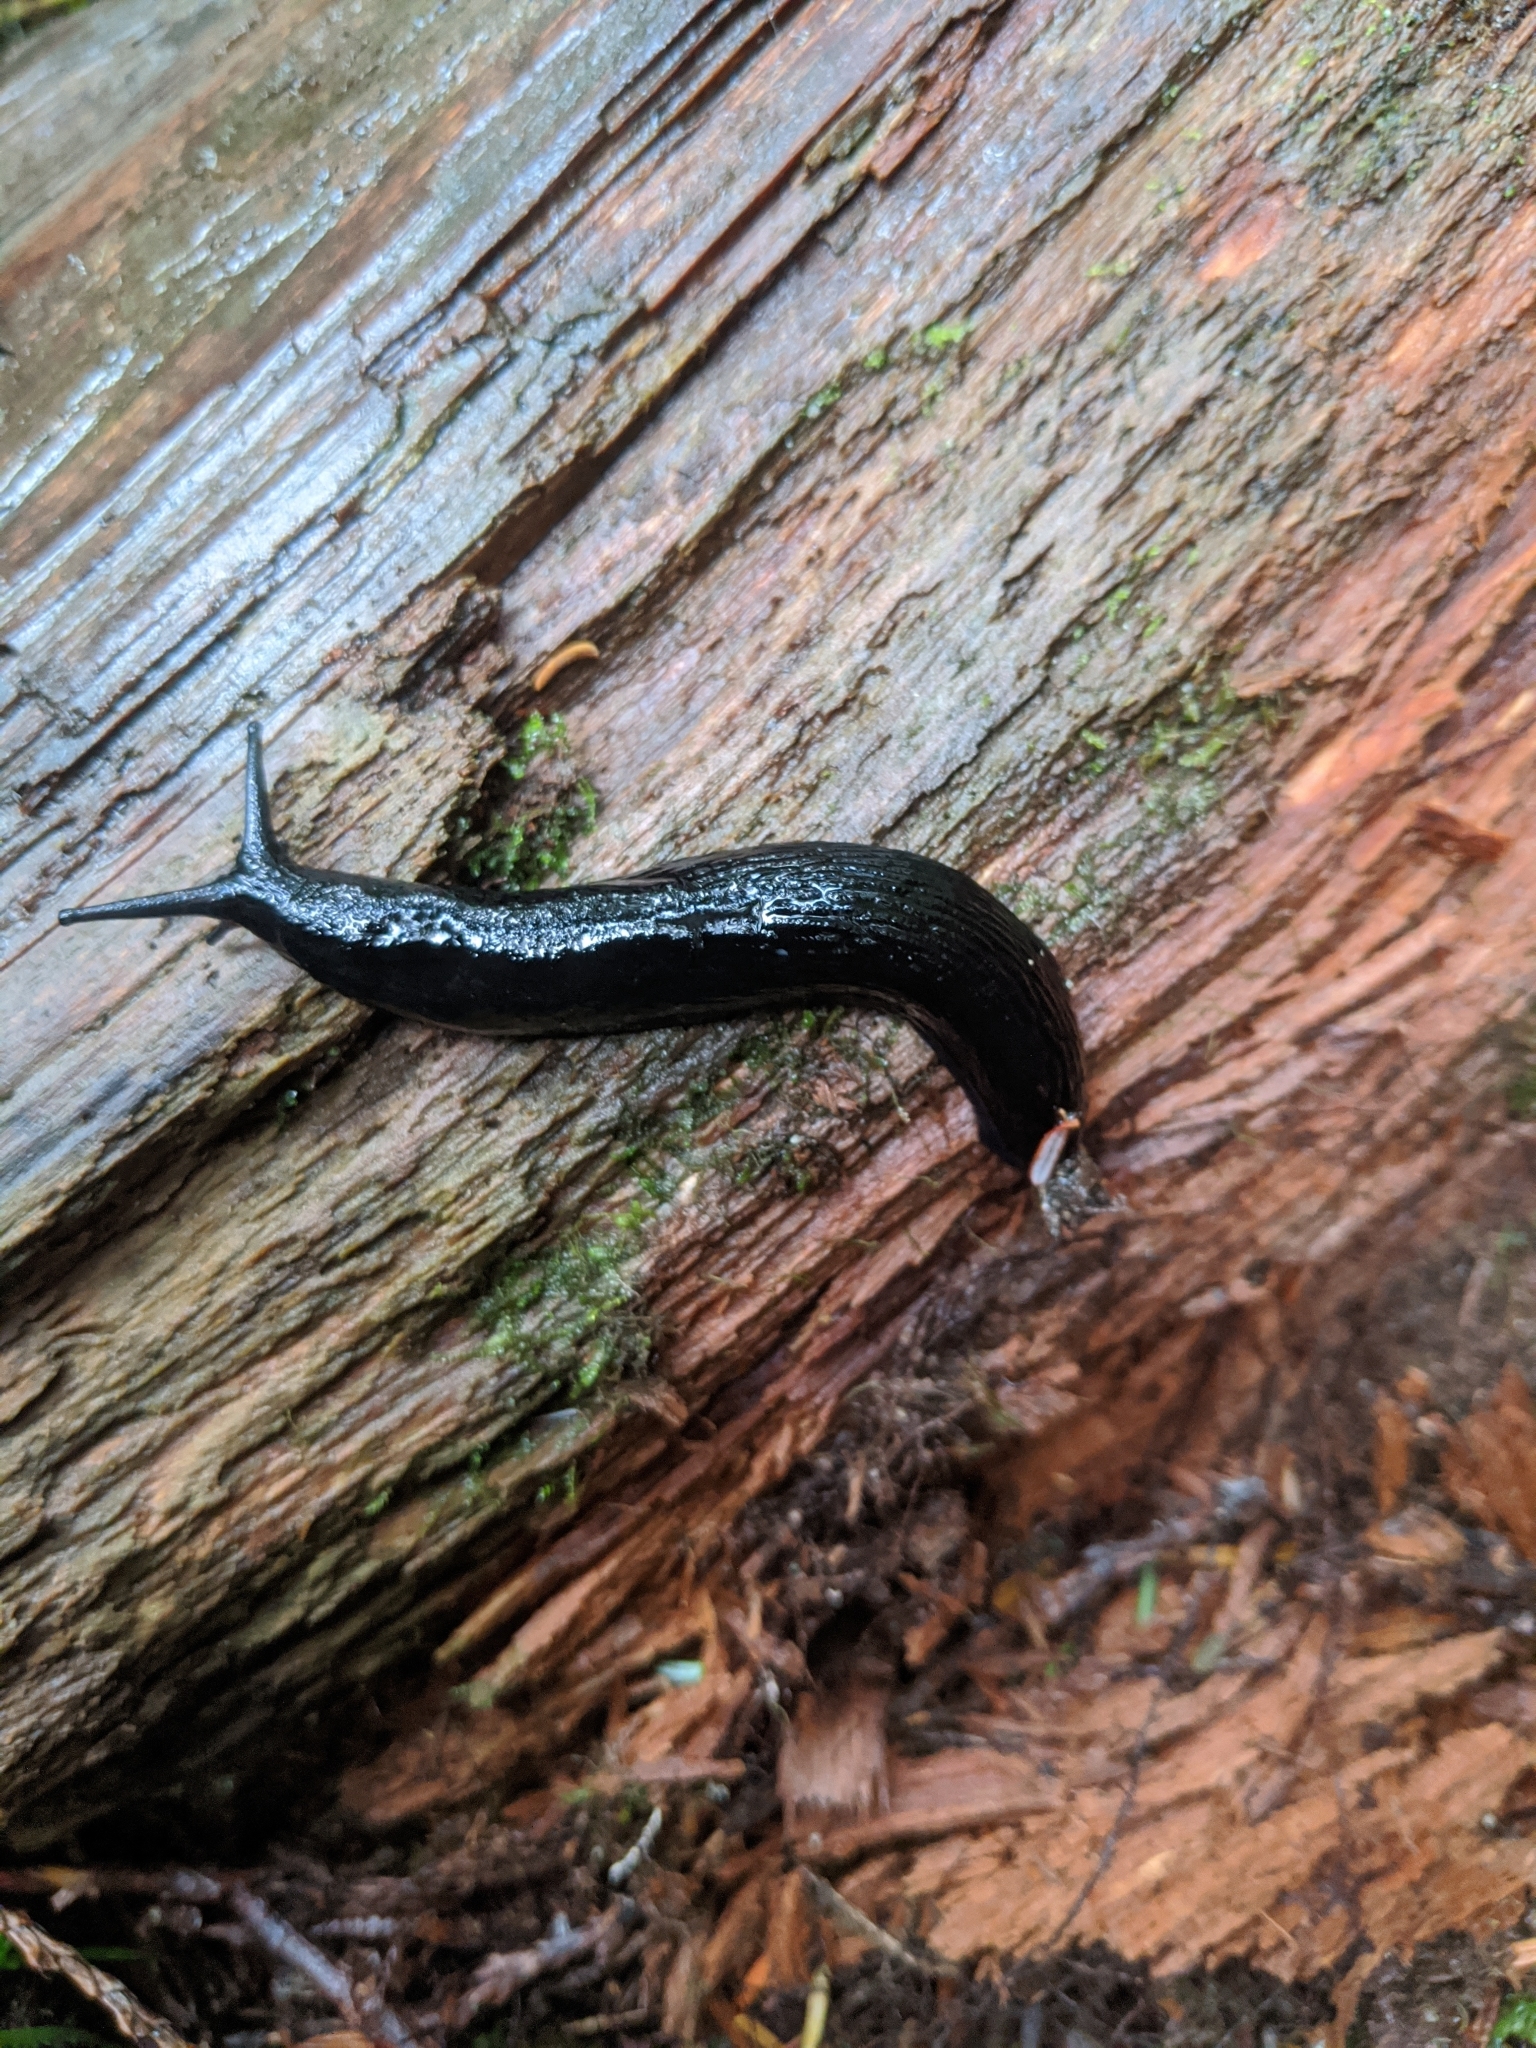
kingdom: Animalia
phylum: Mollusca
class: Gastropoda
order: Stylommatophora
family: Arionidae
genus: Arion
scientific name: Arion rufus
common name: Chocolate arion
